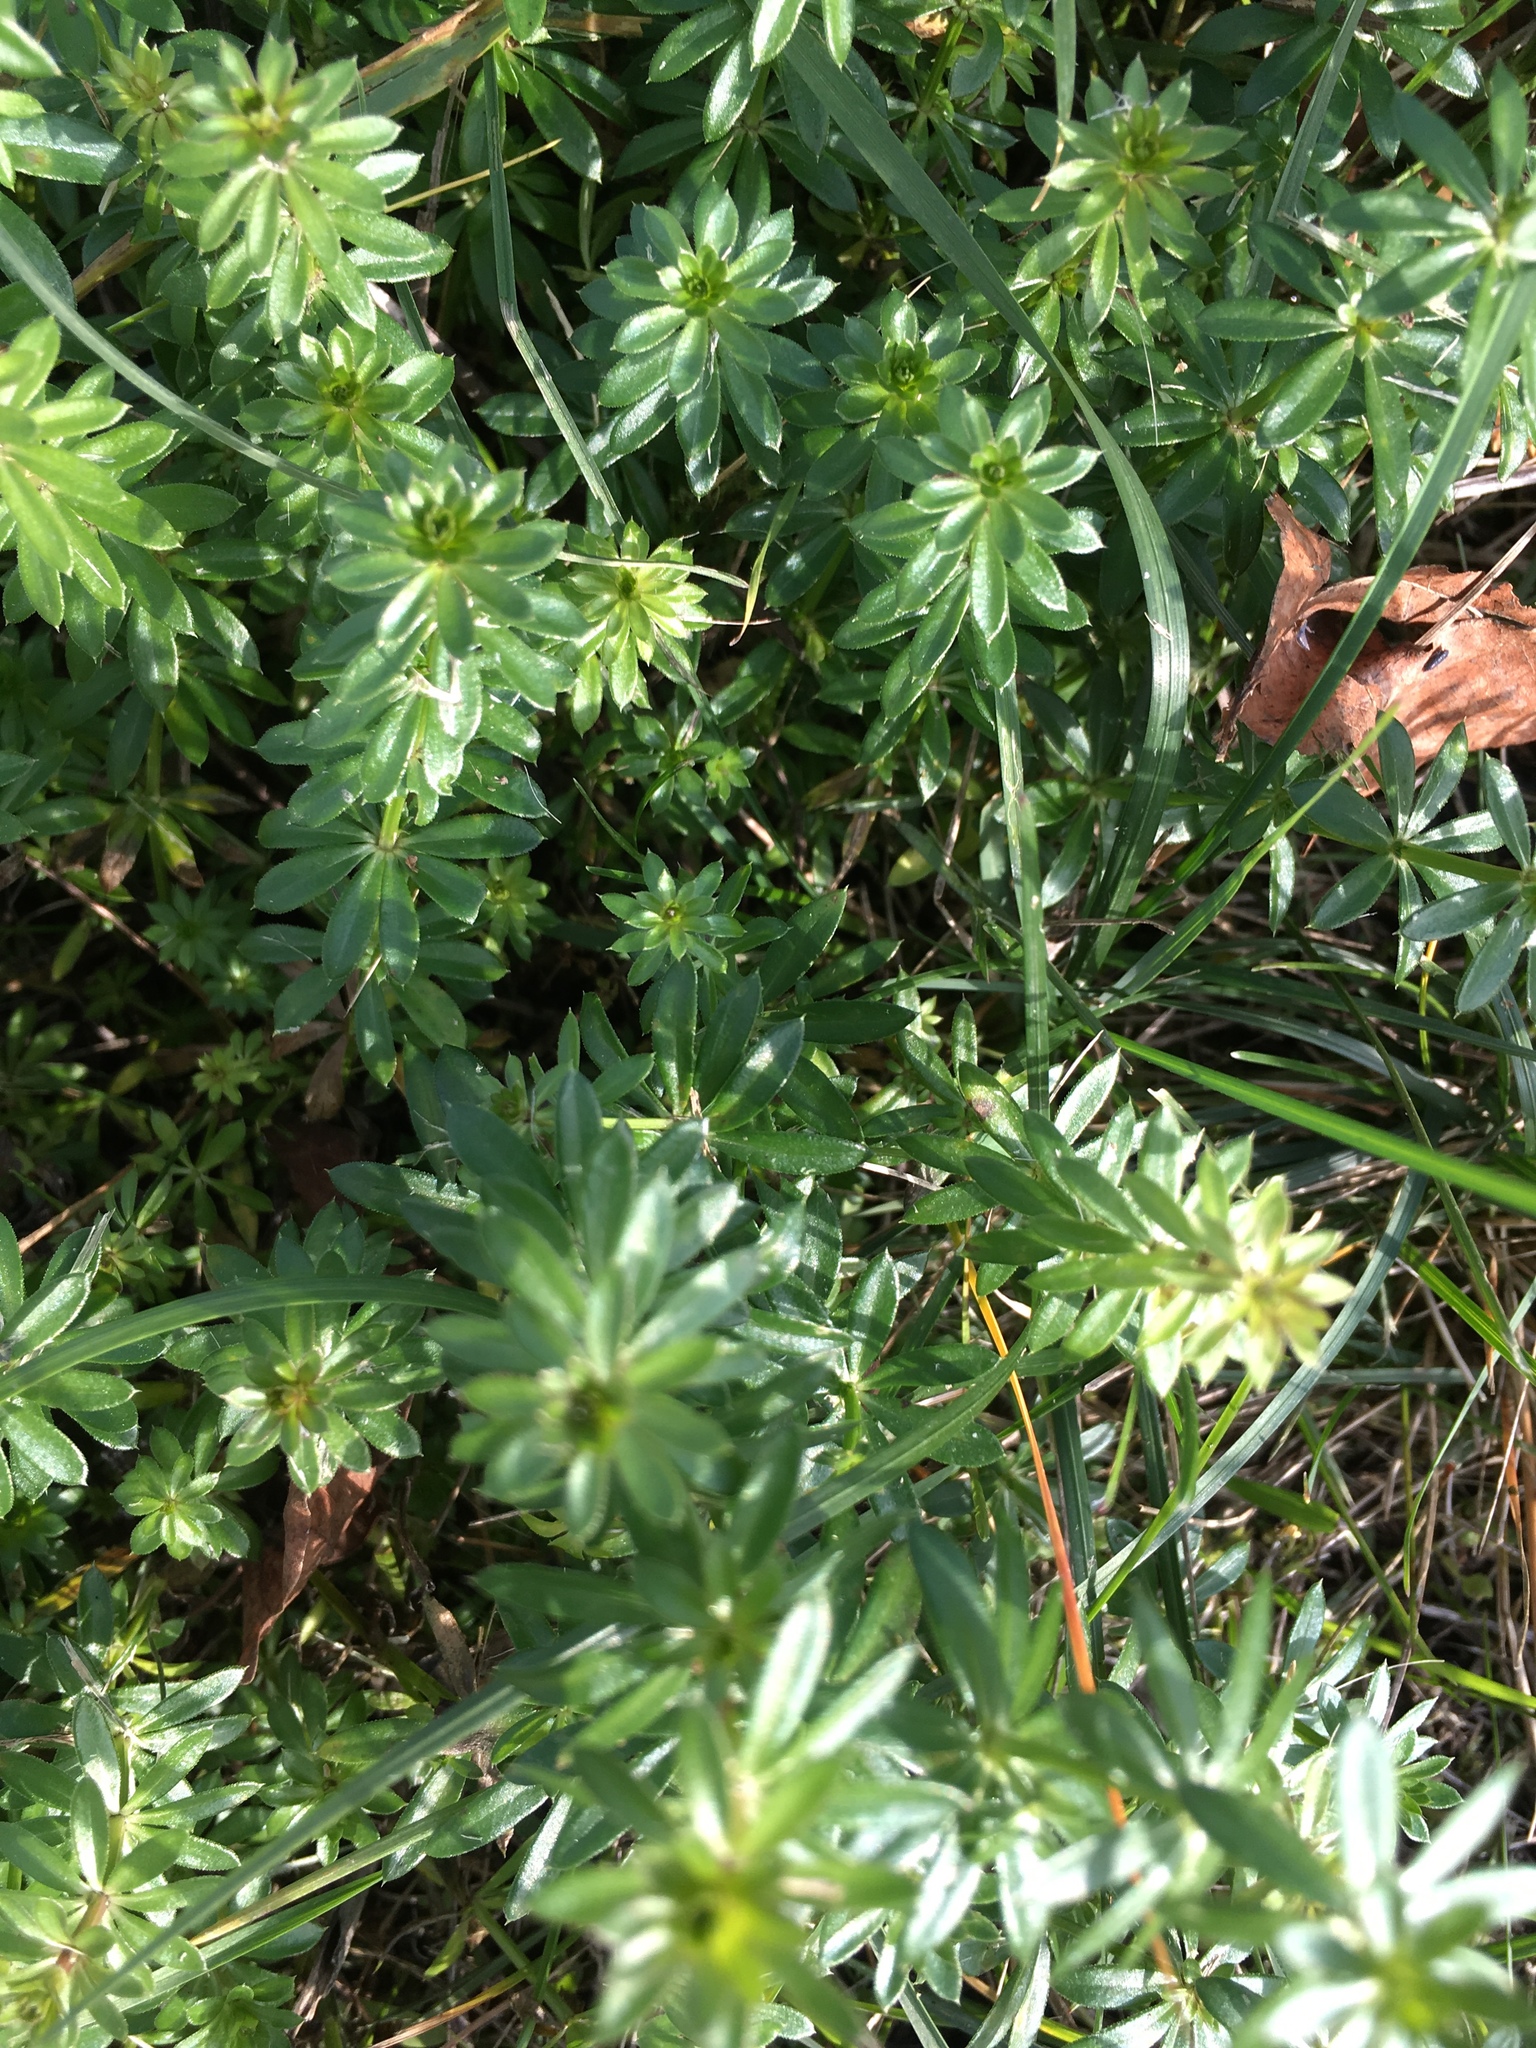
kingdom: Plantae
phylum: Tracheophyta
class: Magnoliopsida
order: Gentianales
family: Rubiaceae
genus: Galium
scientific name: Galium mollugo
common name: Hedge bedstraw
